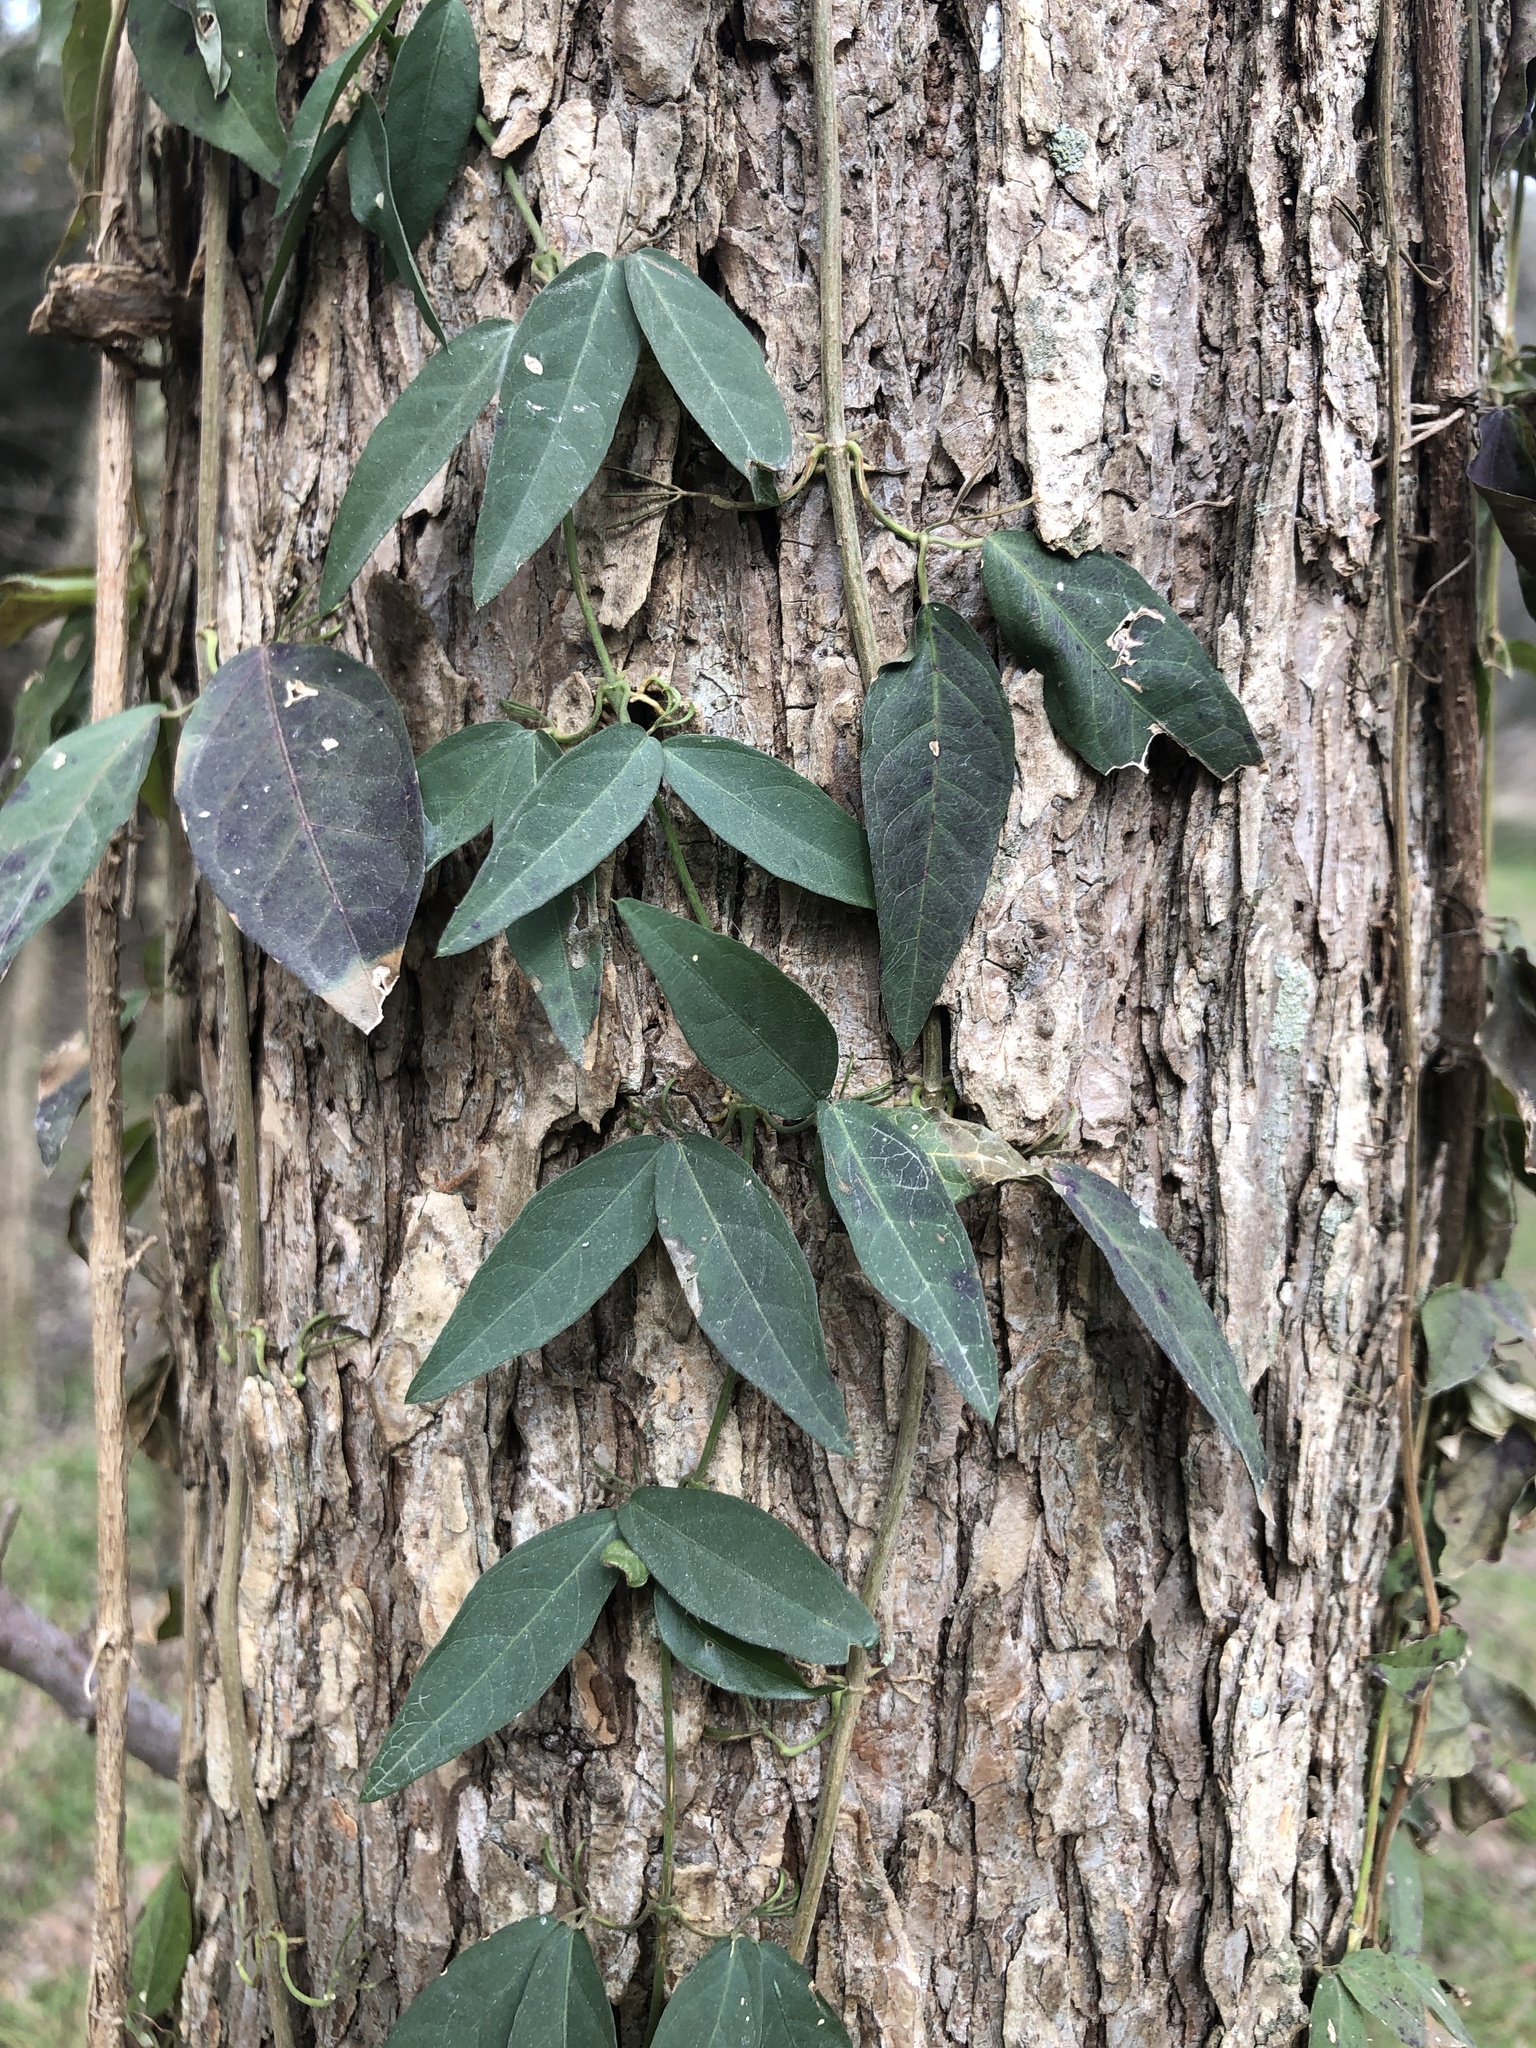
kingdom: Plantae
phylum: Tracheophyta
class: Magnoliopsida
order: Lamiales
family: Bignoniaceae
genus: Dolichandra
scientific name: Dolichandra unguis-cati
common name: Catclaw vine
